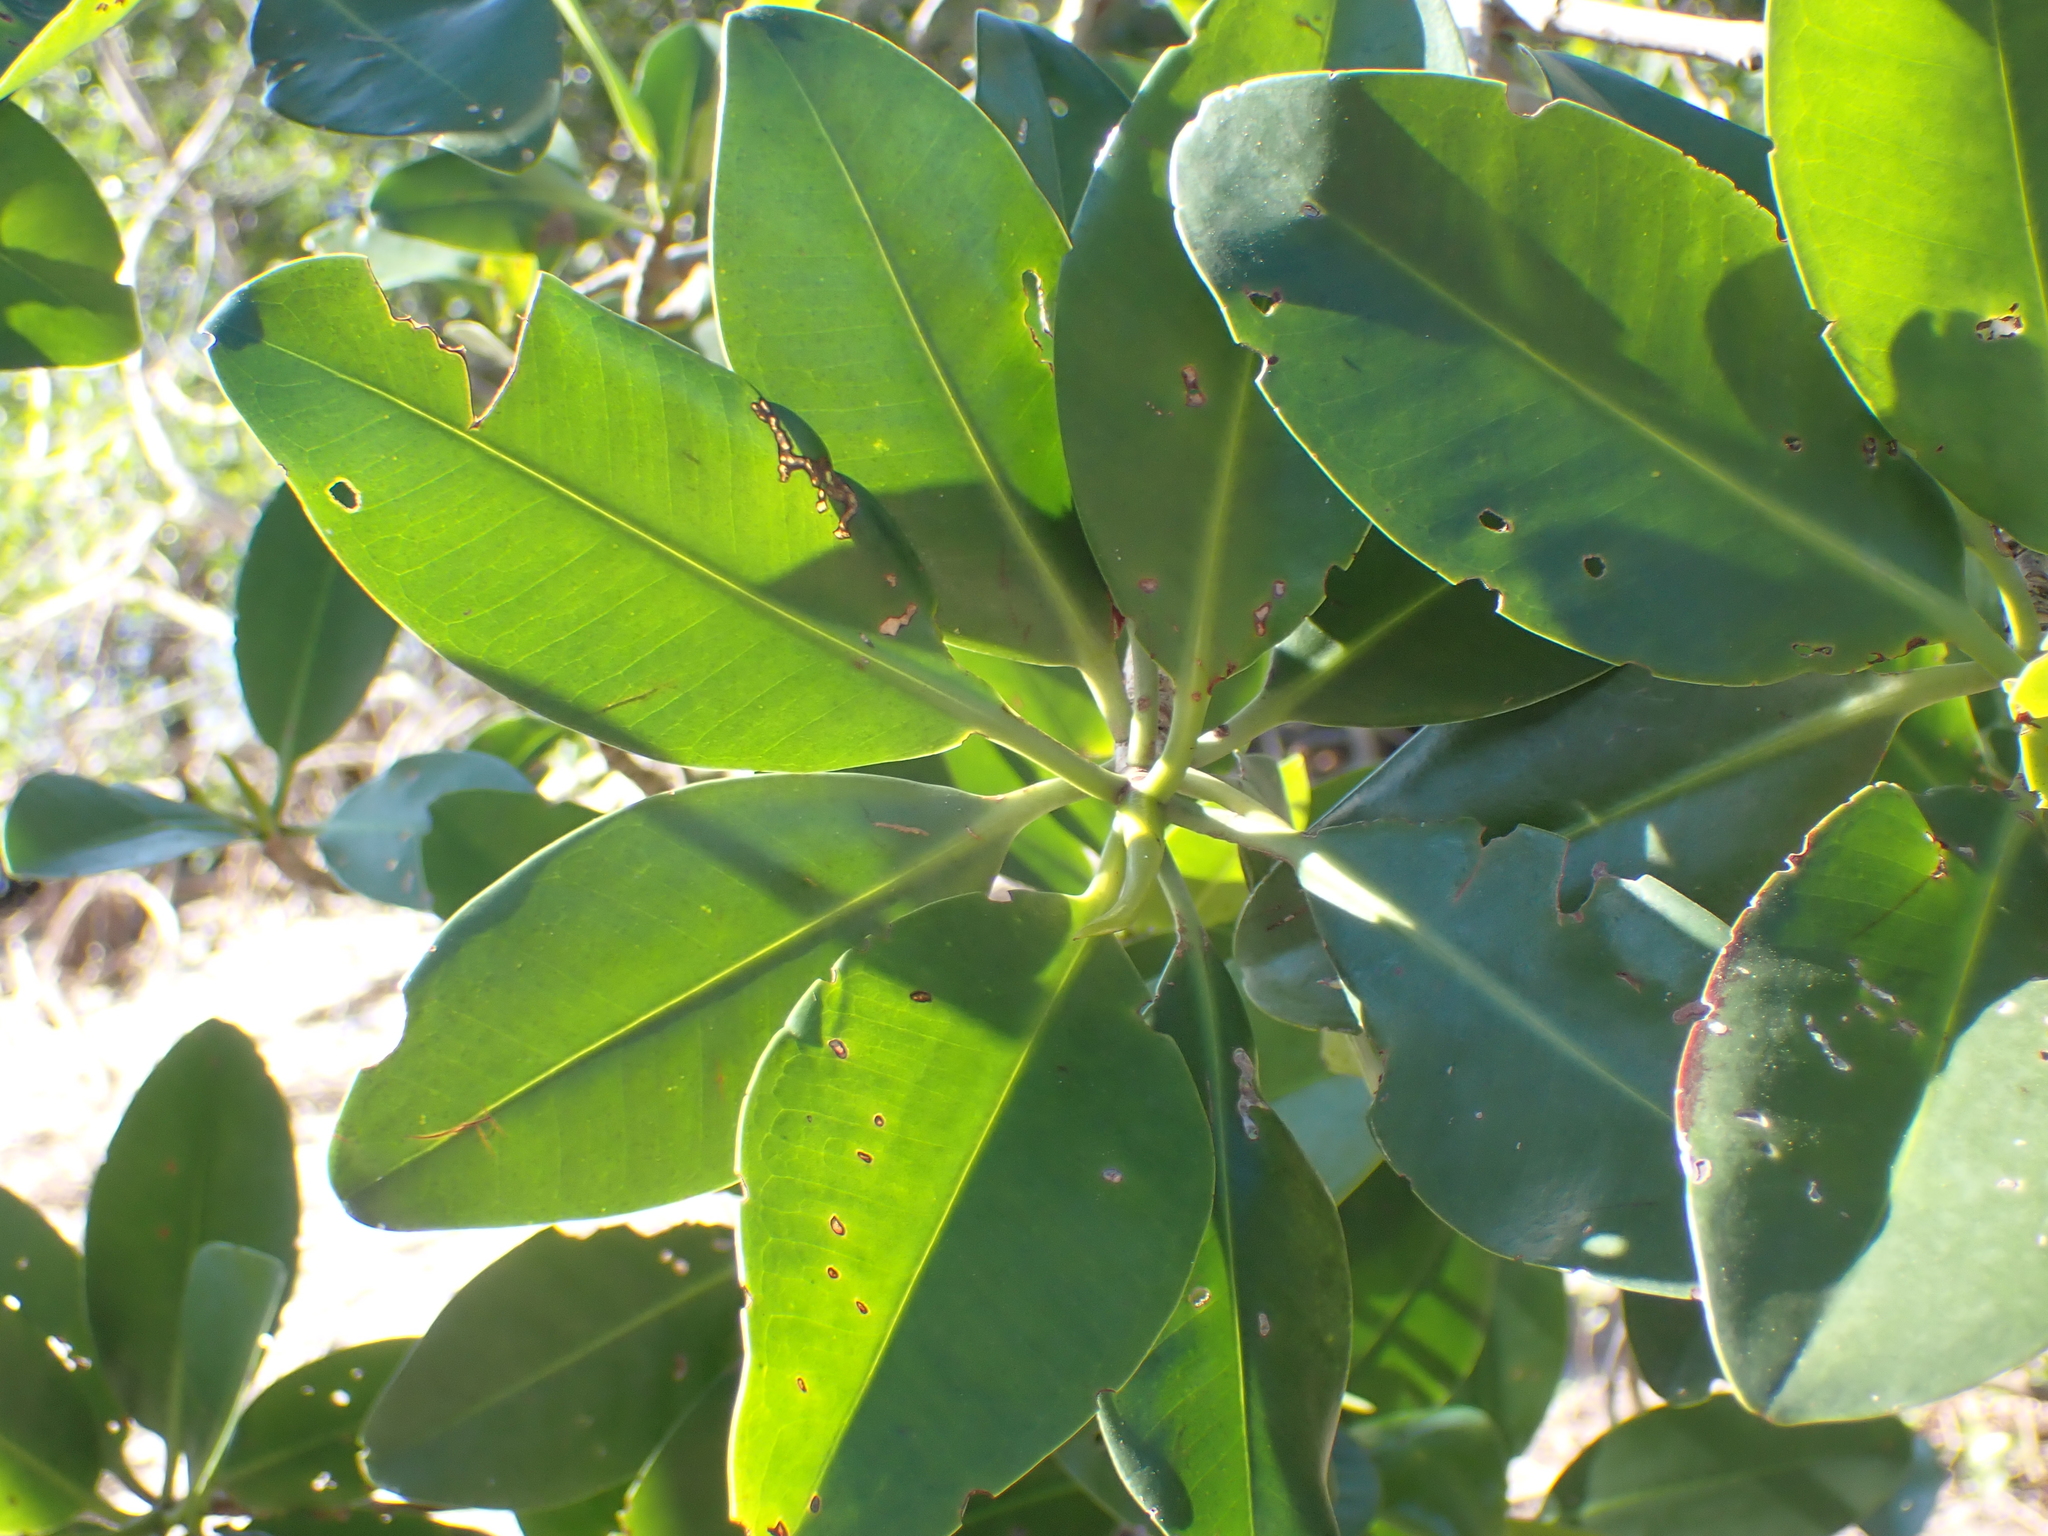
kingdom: Plantae
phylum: Tracheophyta
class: Magnoliopsida
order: Malpighiales
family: Rhizophoraceae
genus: Rhizophora
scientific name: Rhizophora mangle
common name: Red mangrove
